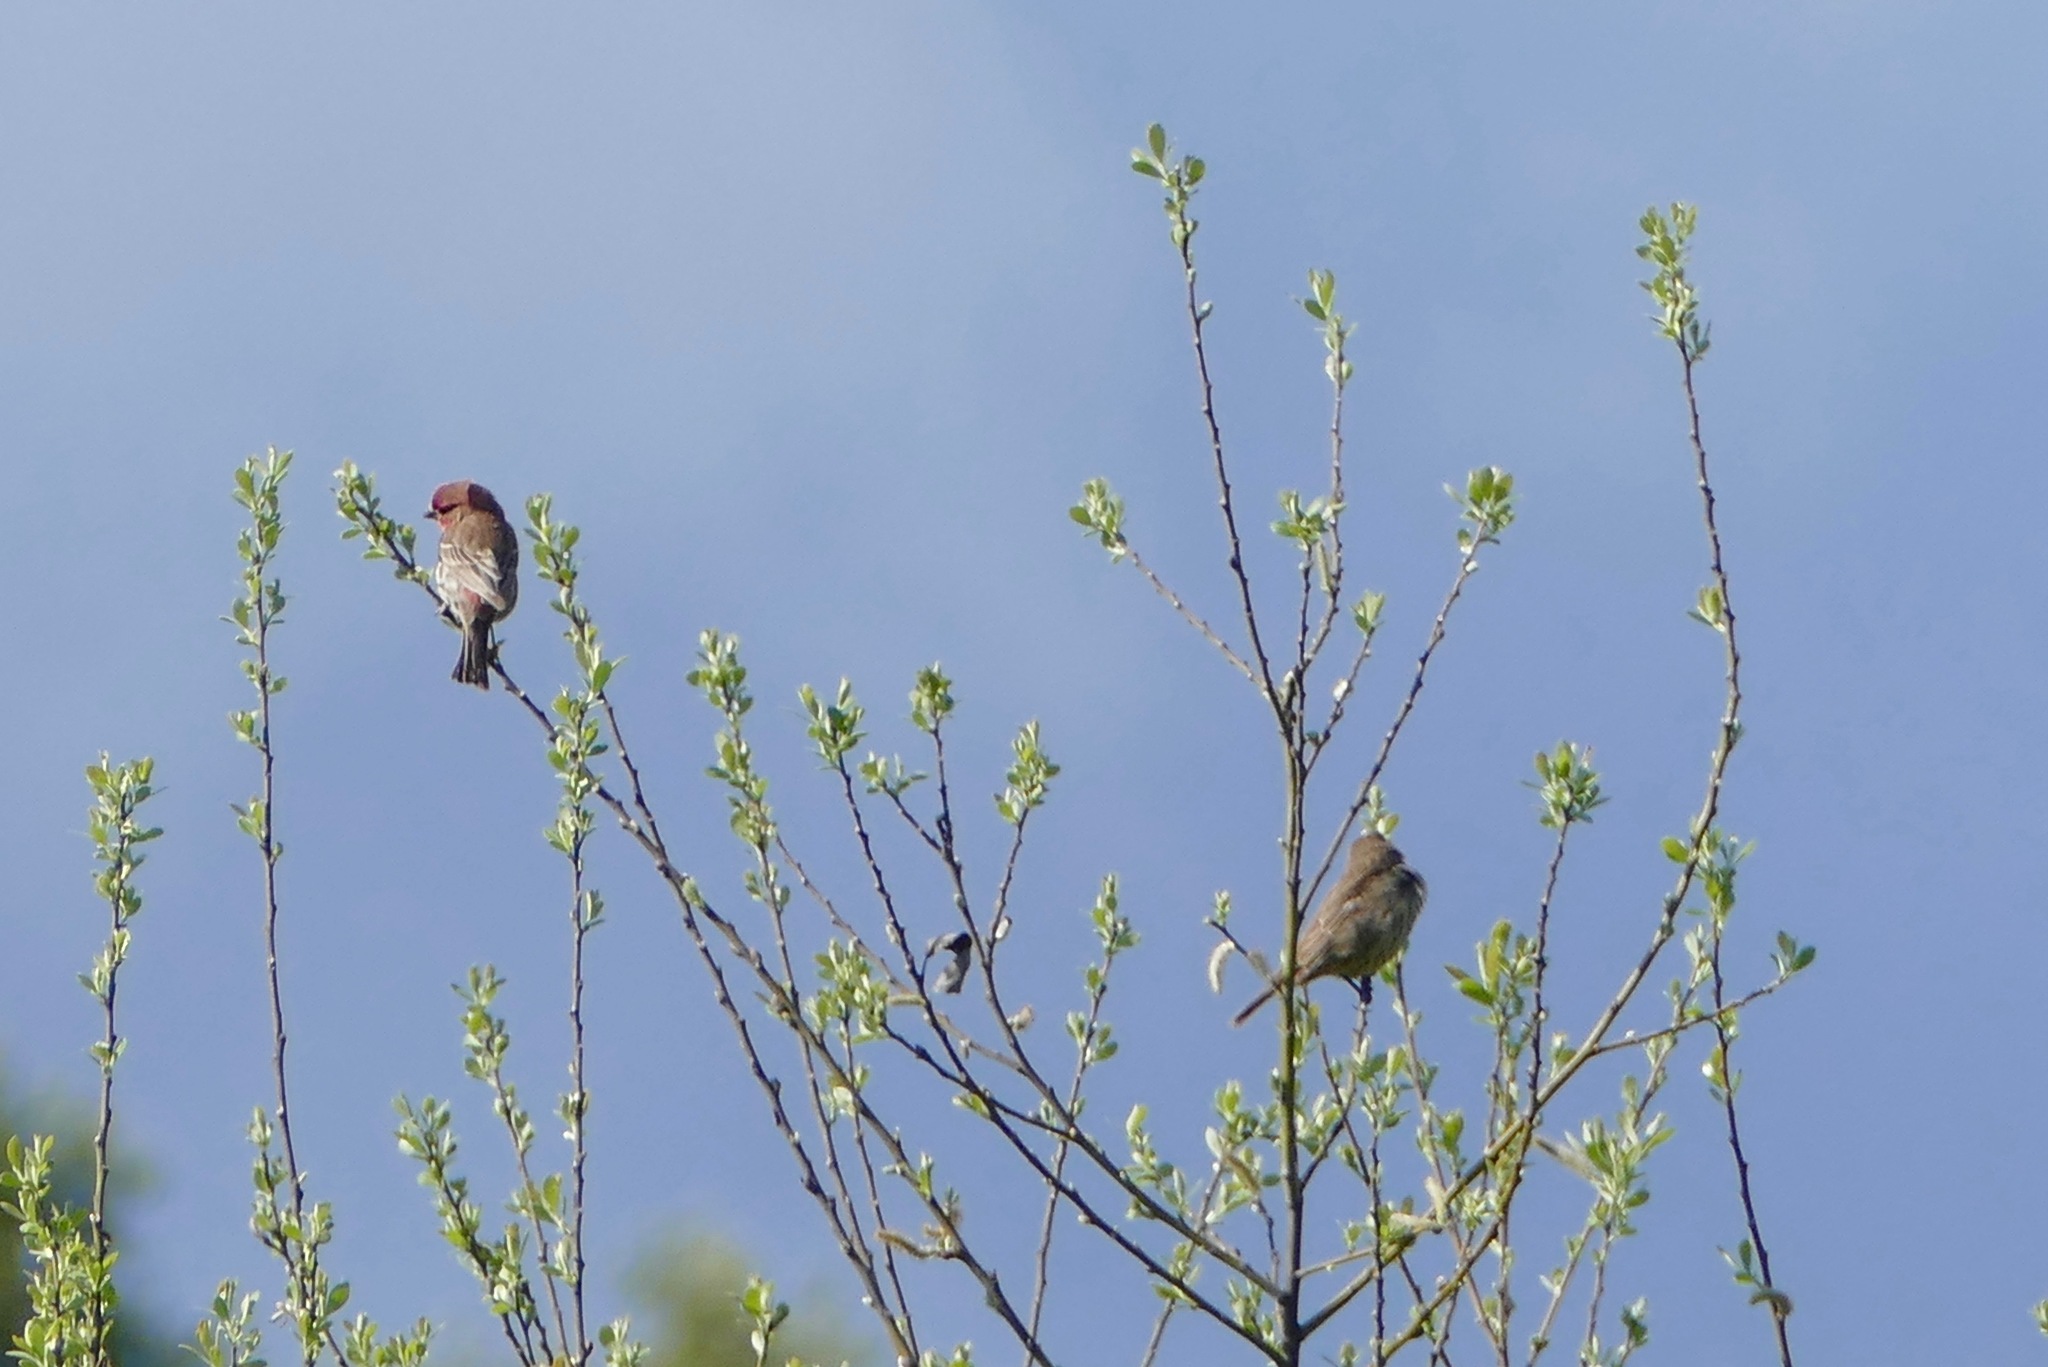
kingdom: Animalia
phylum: Chordata
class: Aves
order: Passeriformes
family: Fringillidae
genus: Haemorhous
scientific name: Haemorhous mexicanus
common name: House finch
